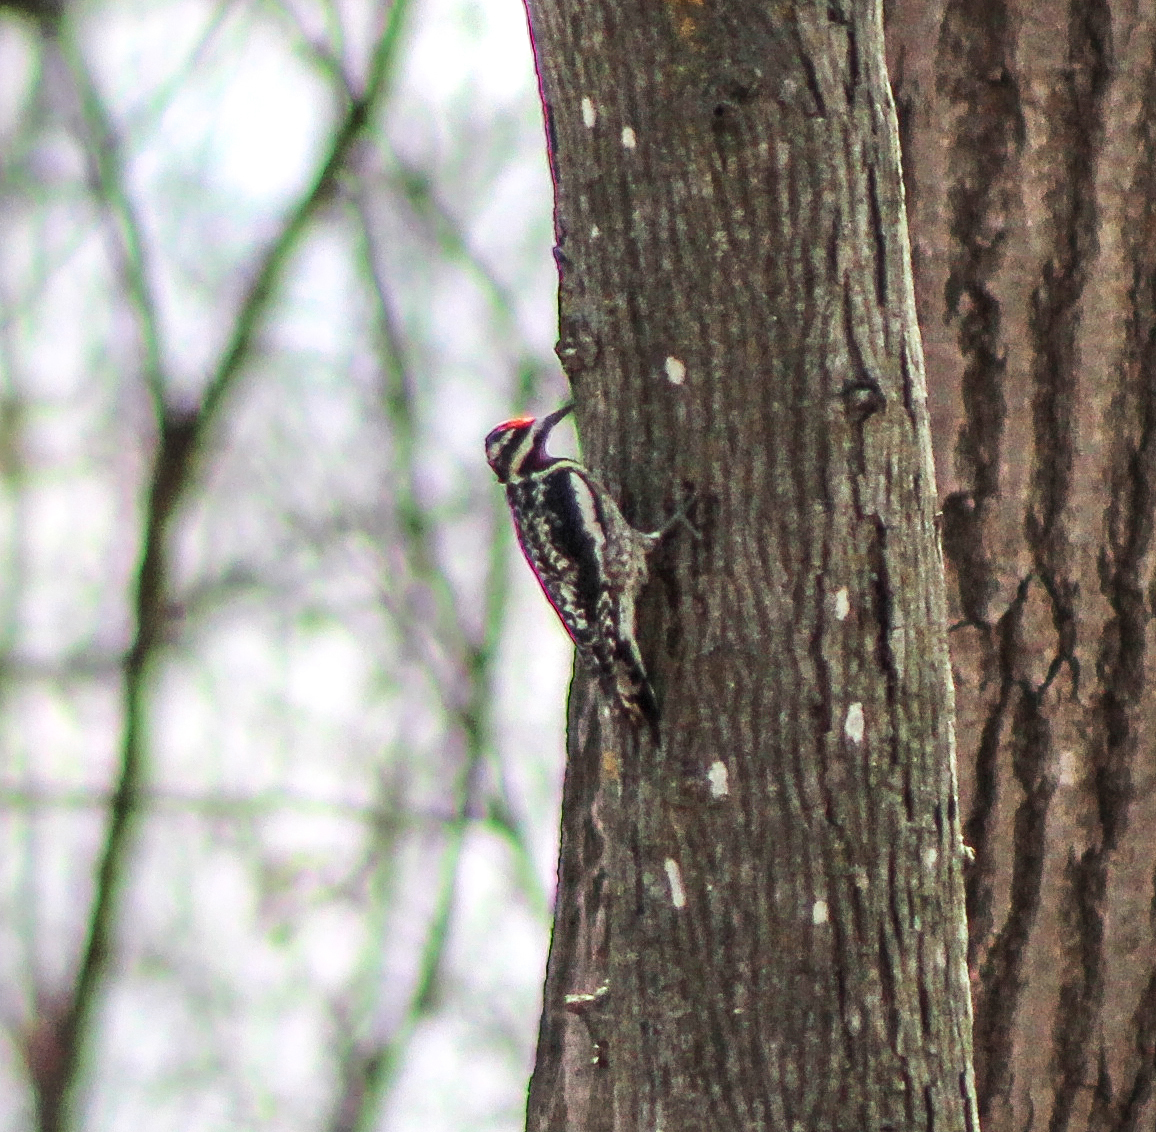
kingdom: Animalia
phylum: Chordata
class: Aves
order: Piciformes
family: Picidae
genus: Sphyrapicus
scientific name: Sphyrapicus varius
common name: Yellow-bellied sapsucker
